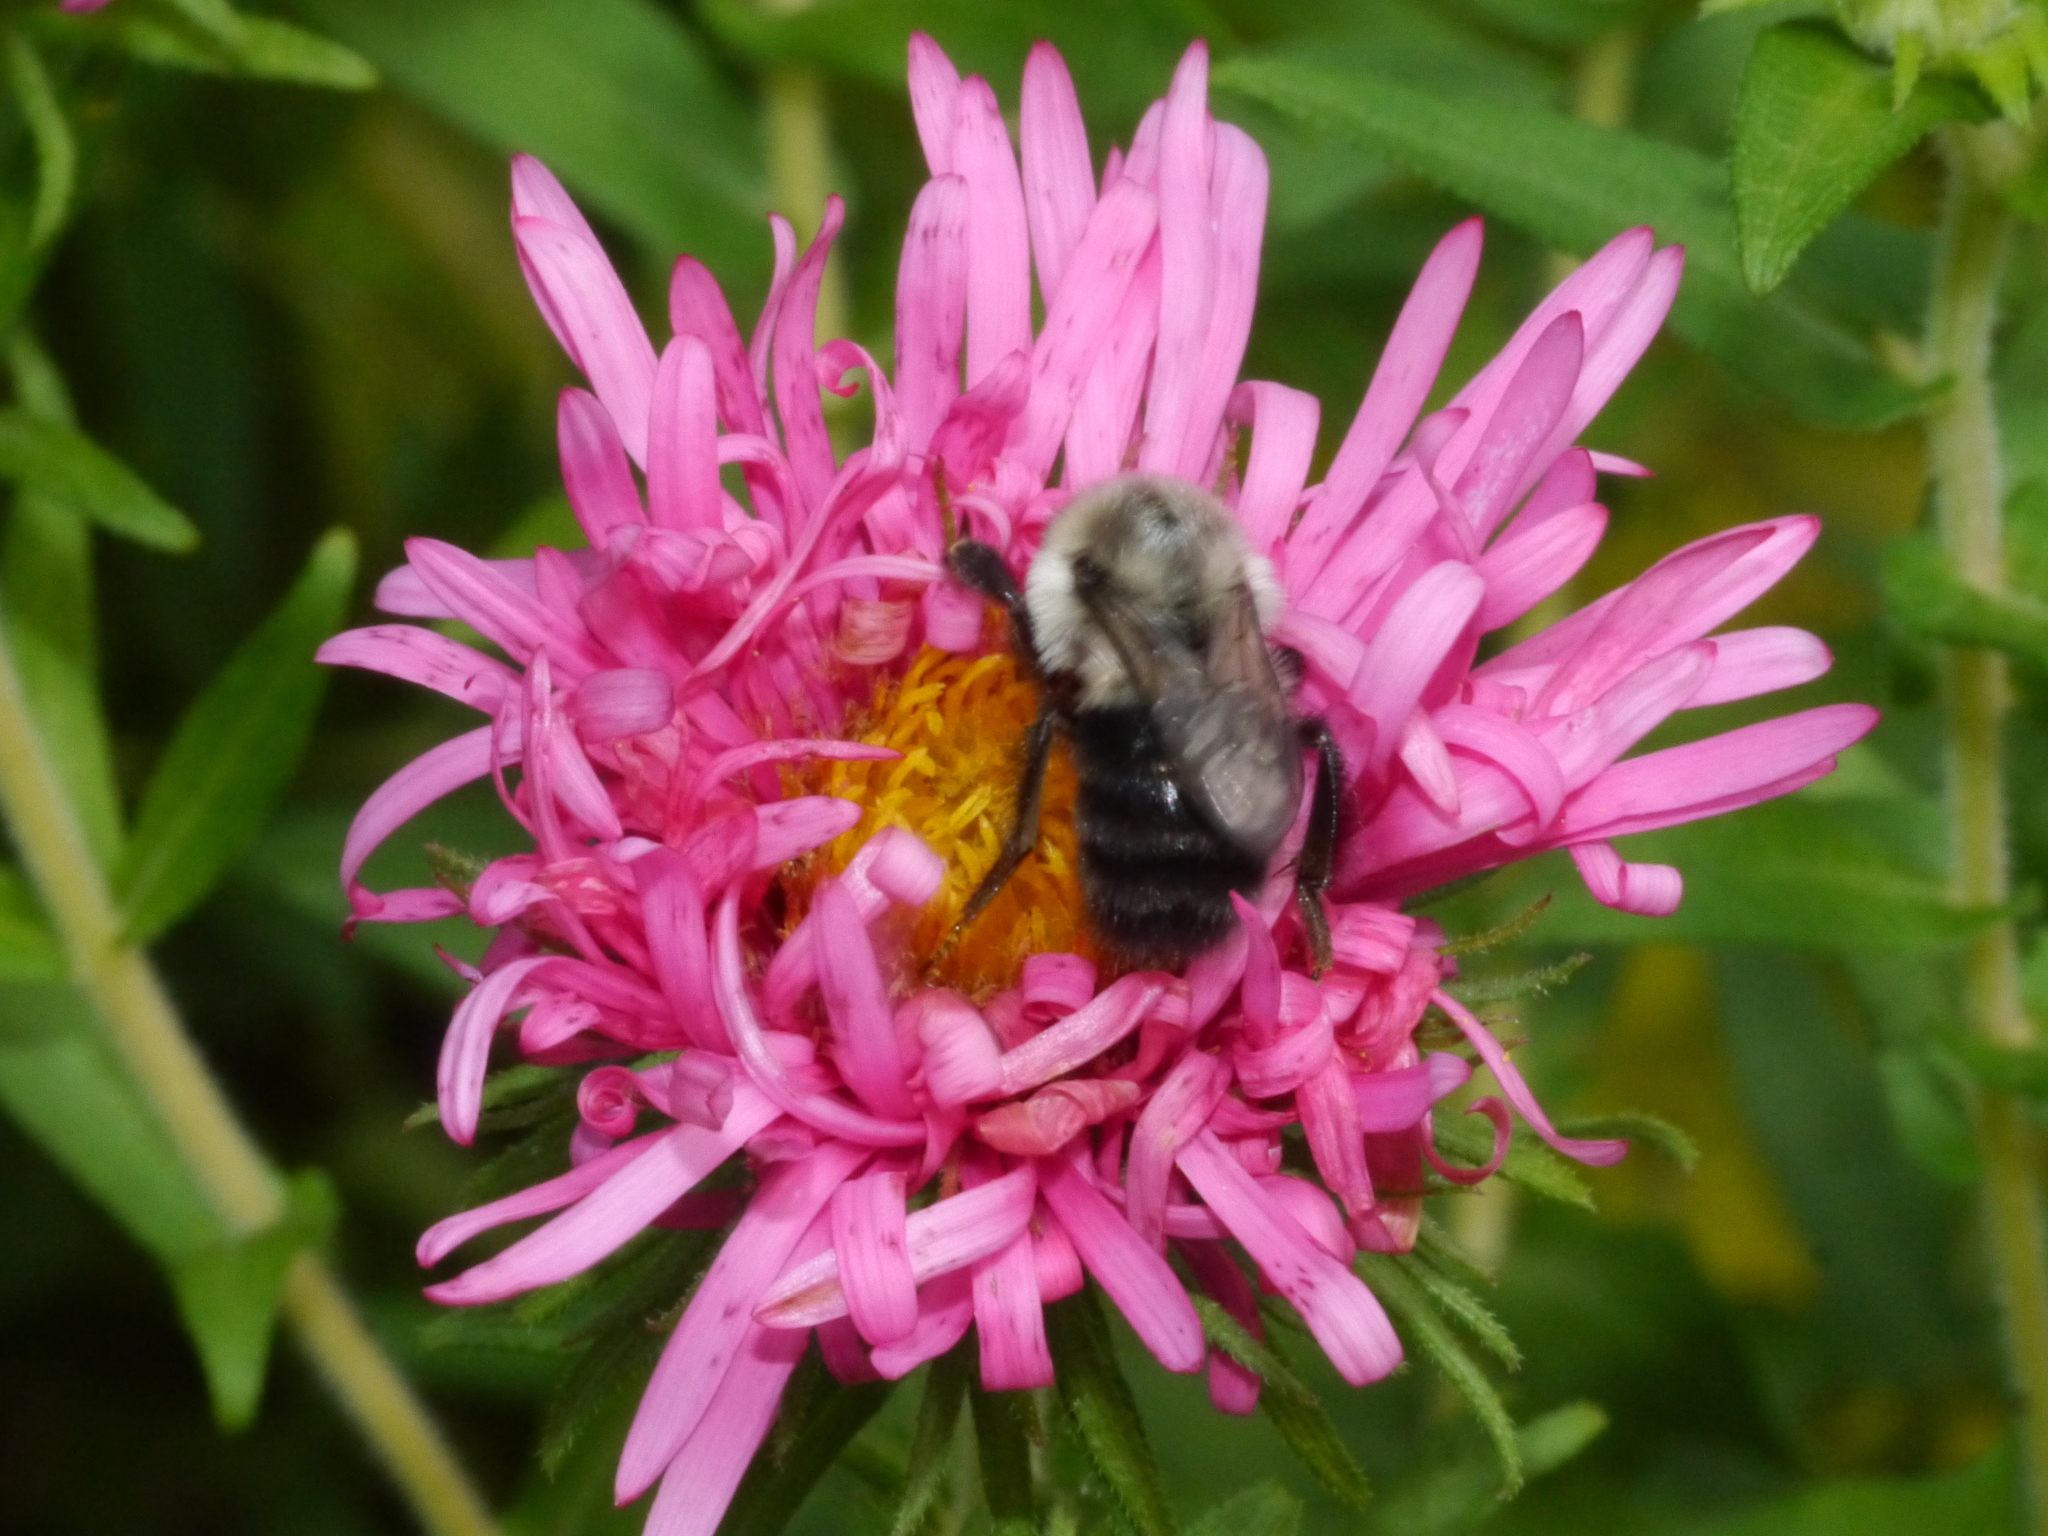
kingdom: Animalia
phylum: Arthropoda
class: Insecta
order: Hymenoptera
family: Apidae
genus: Bombus
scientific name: Bombus impatiens
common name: Common eastern bumble bee
